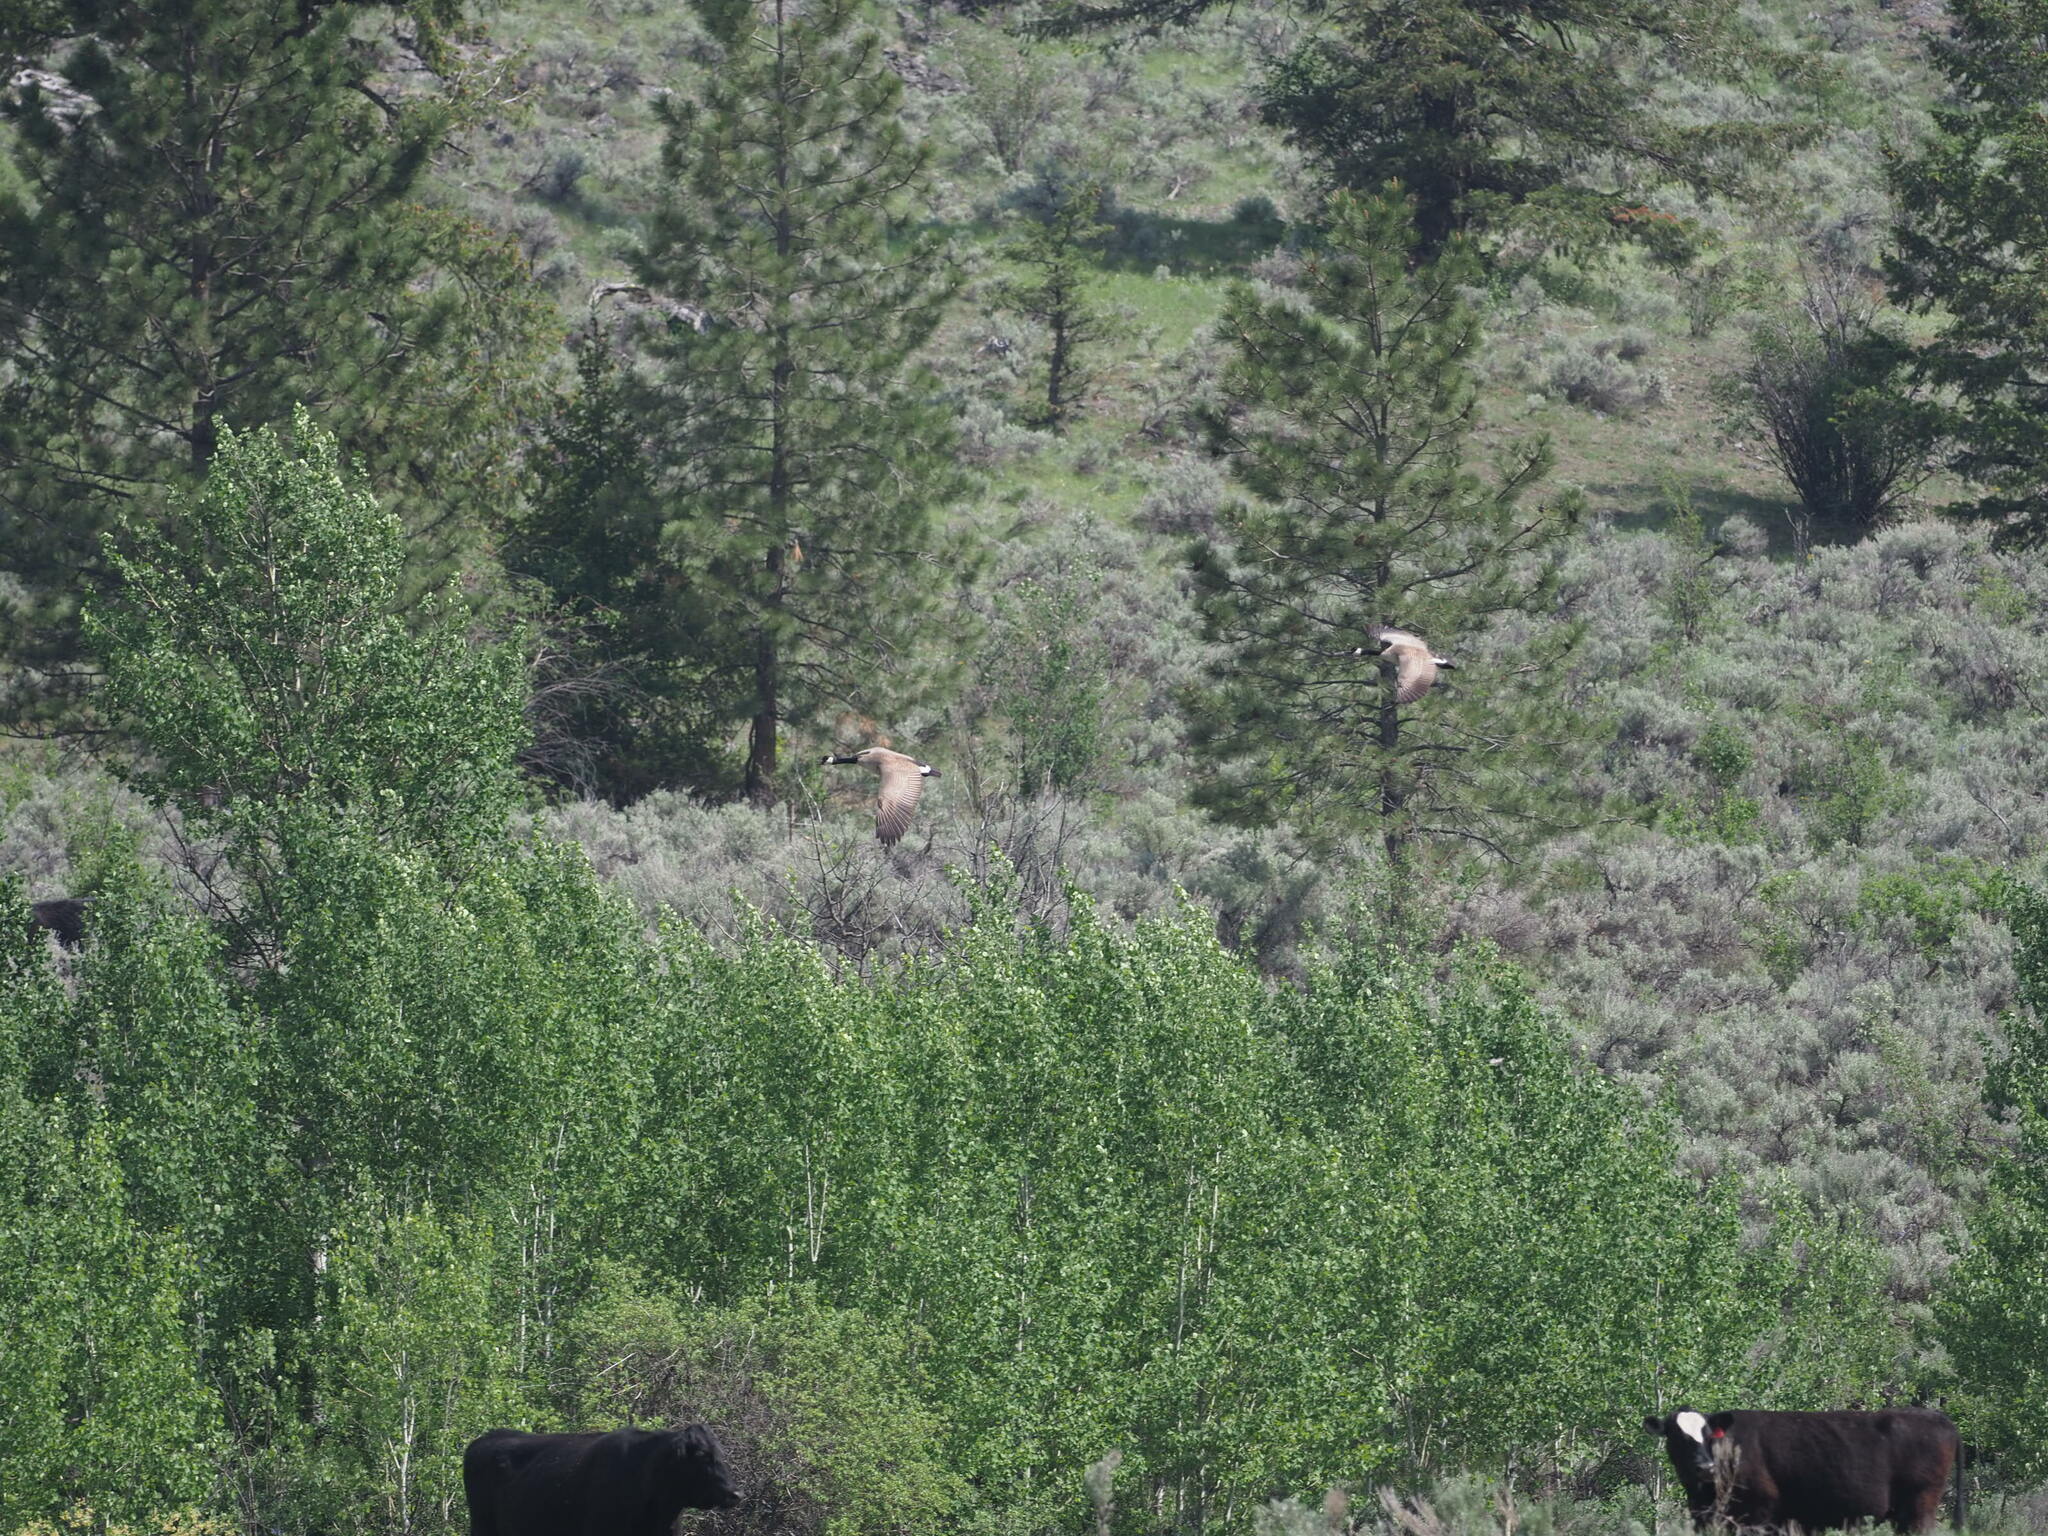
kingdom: Animalia
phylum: Chordata
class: Aves
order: Anseriformes
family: Anatidae
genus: Branta
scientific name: Branta canadensis
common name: Canada goose
